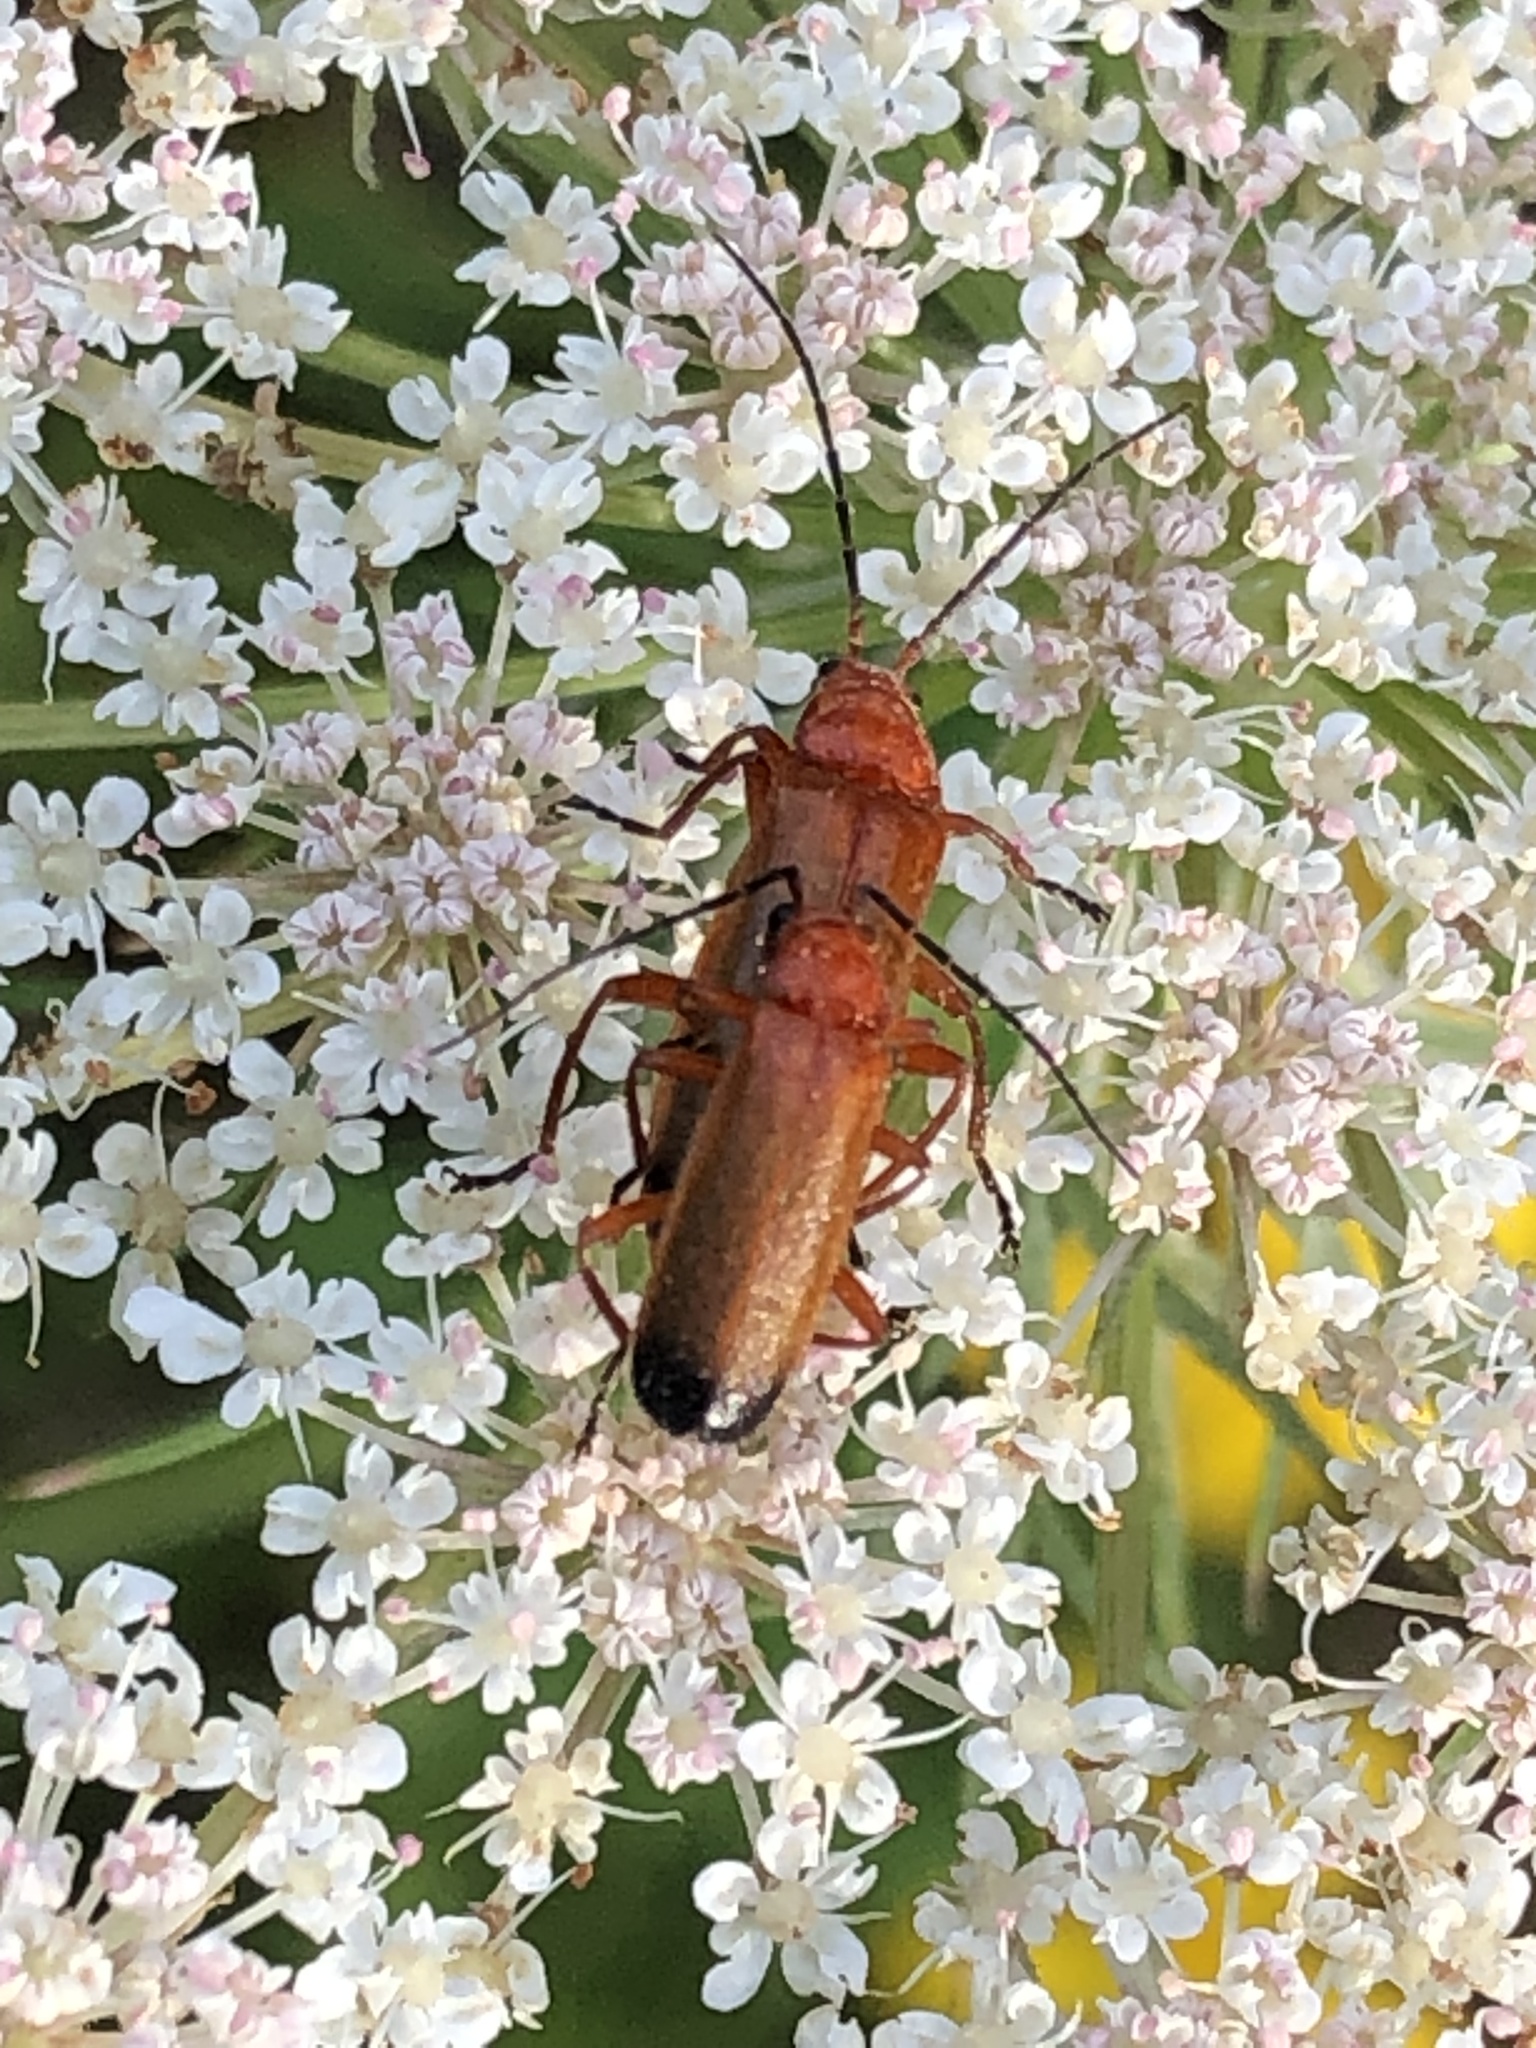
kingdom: Animalia
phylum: Arthropoda
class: Insecta
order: Coleoptera
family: Cantharidae
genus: Rhagonycha
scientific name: Rhagonycha fulva
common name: Common red soldier beetle
